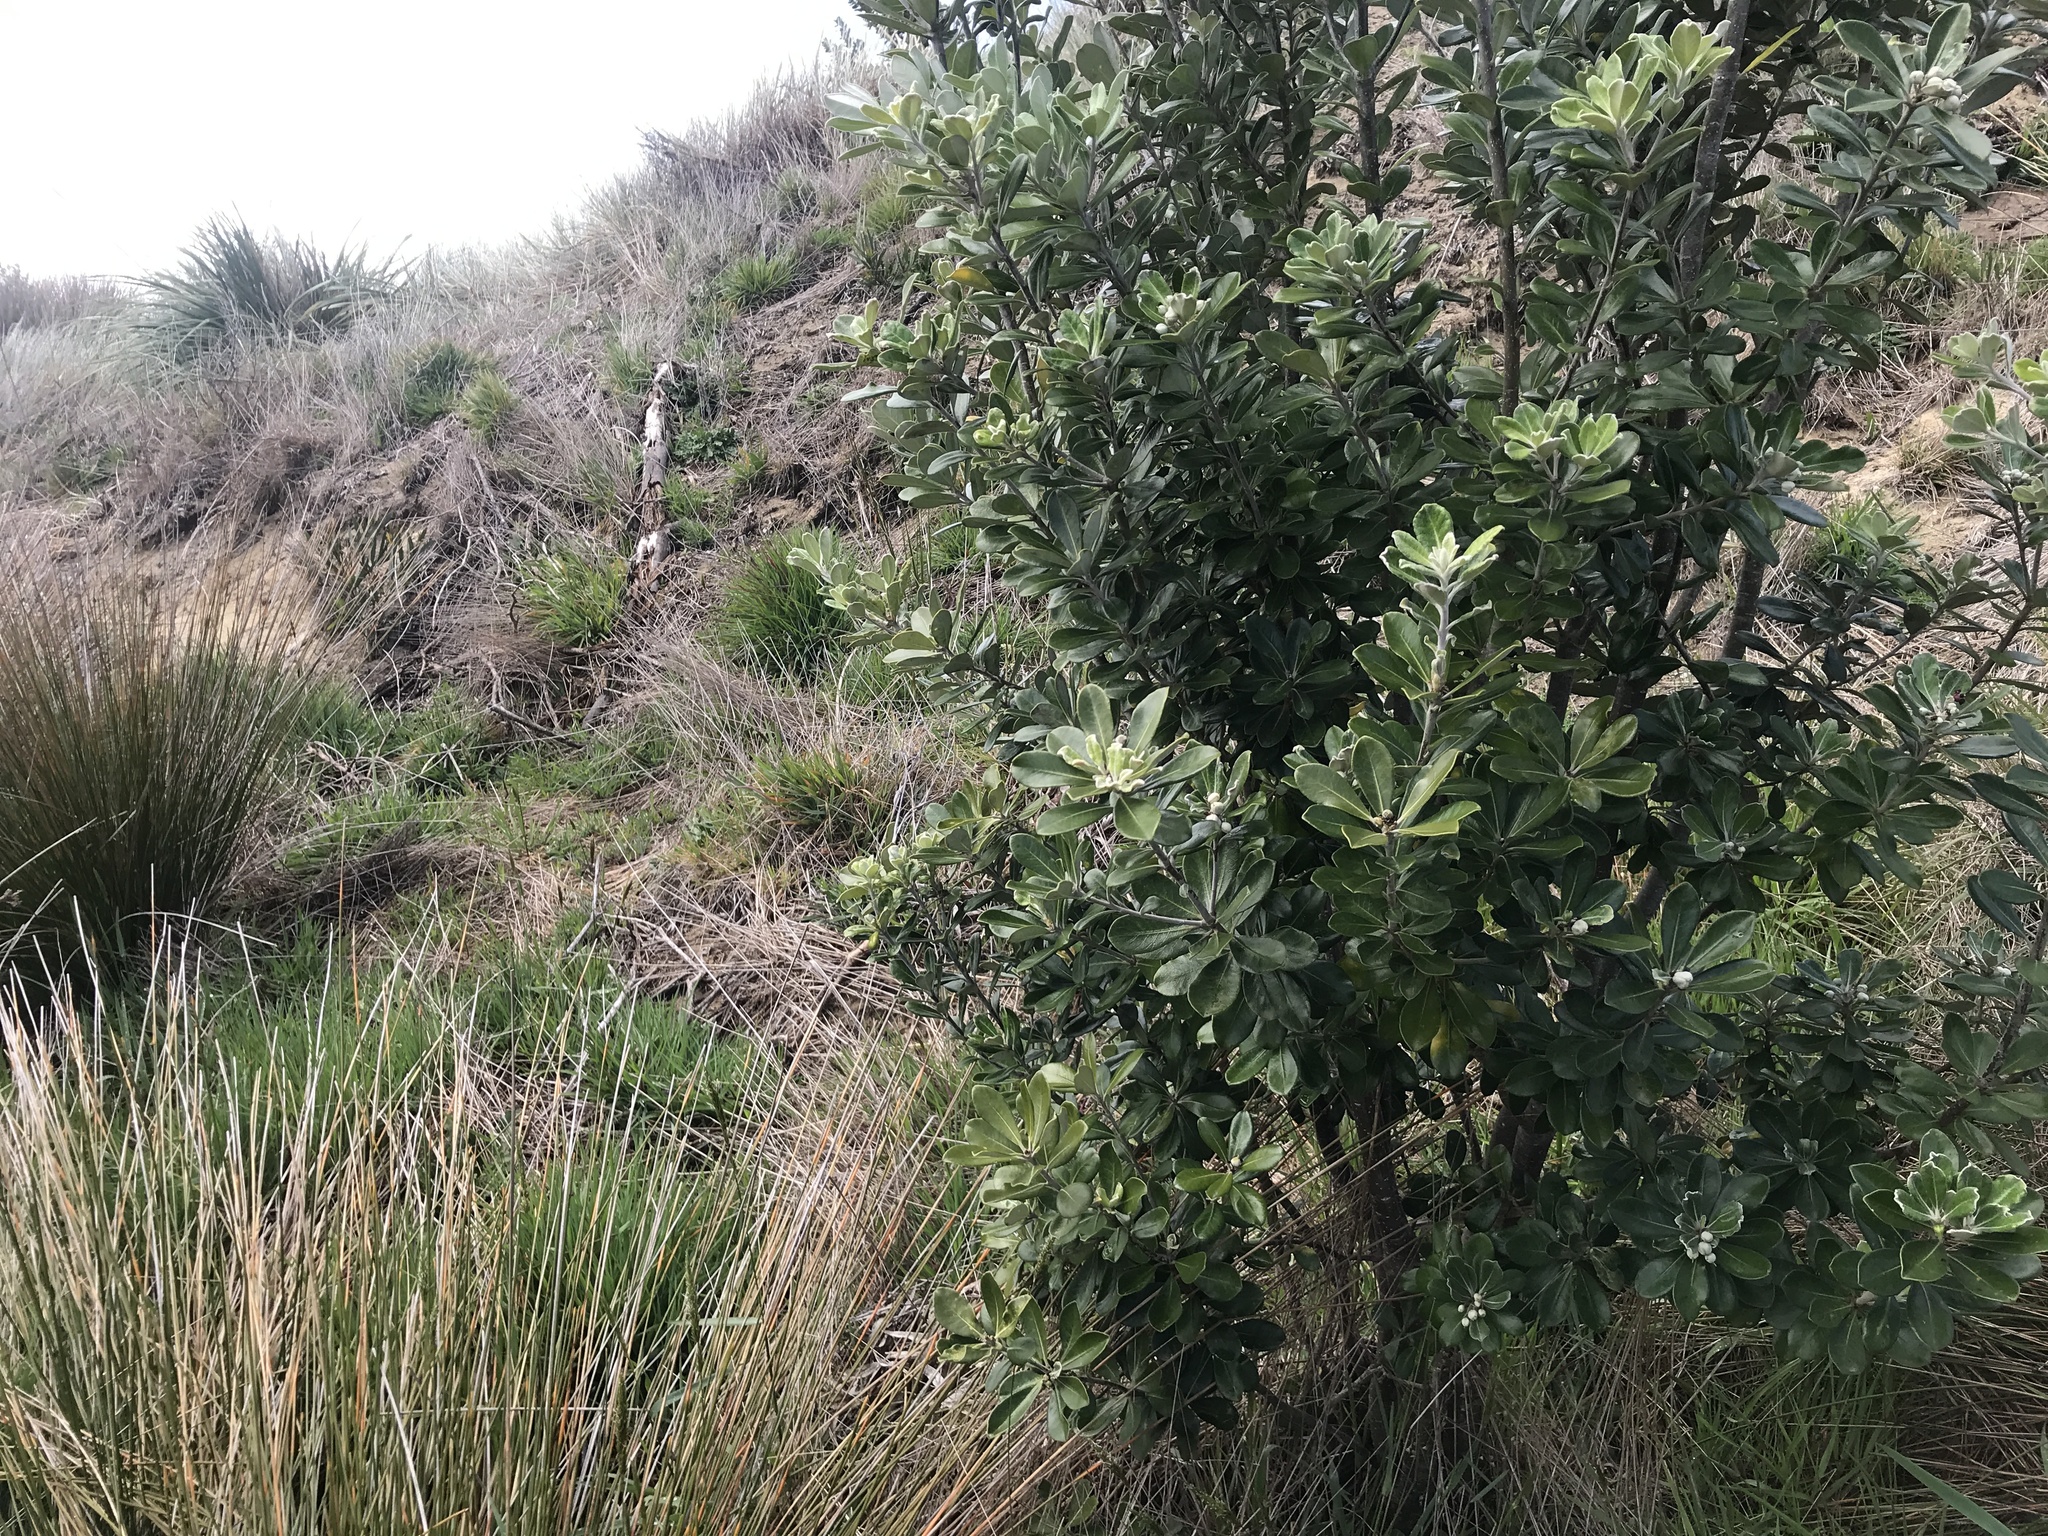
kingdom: Plantae
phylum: Tracheophyta
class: Magnoliopsida
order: Apiales
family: Pittosporaceae
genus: Pittosporum
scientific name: Pittosporum crassifolium
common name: Karo
